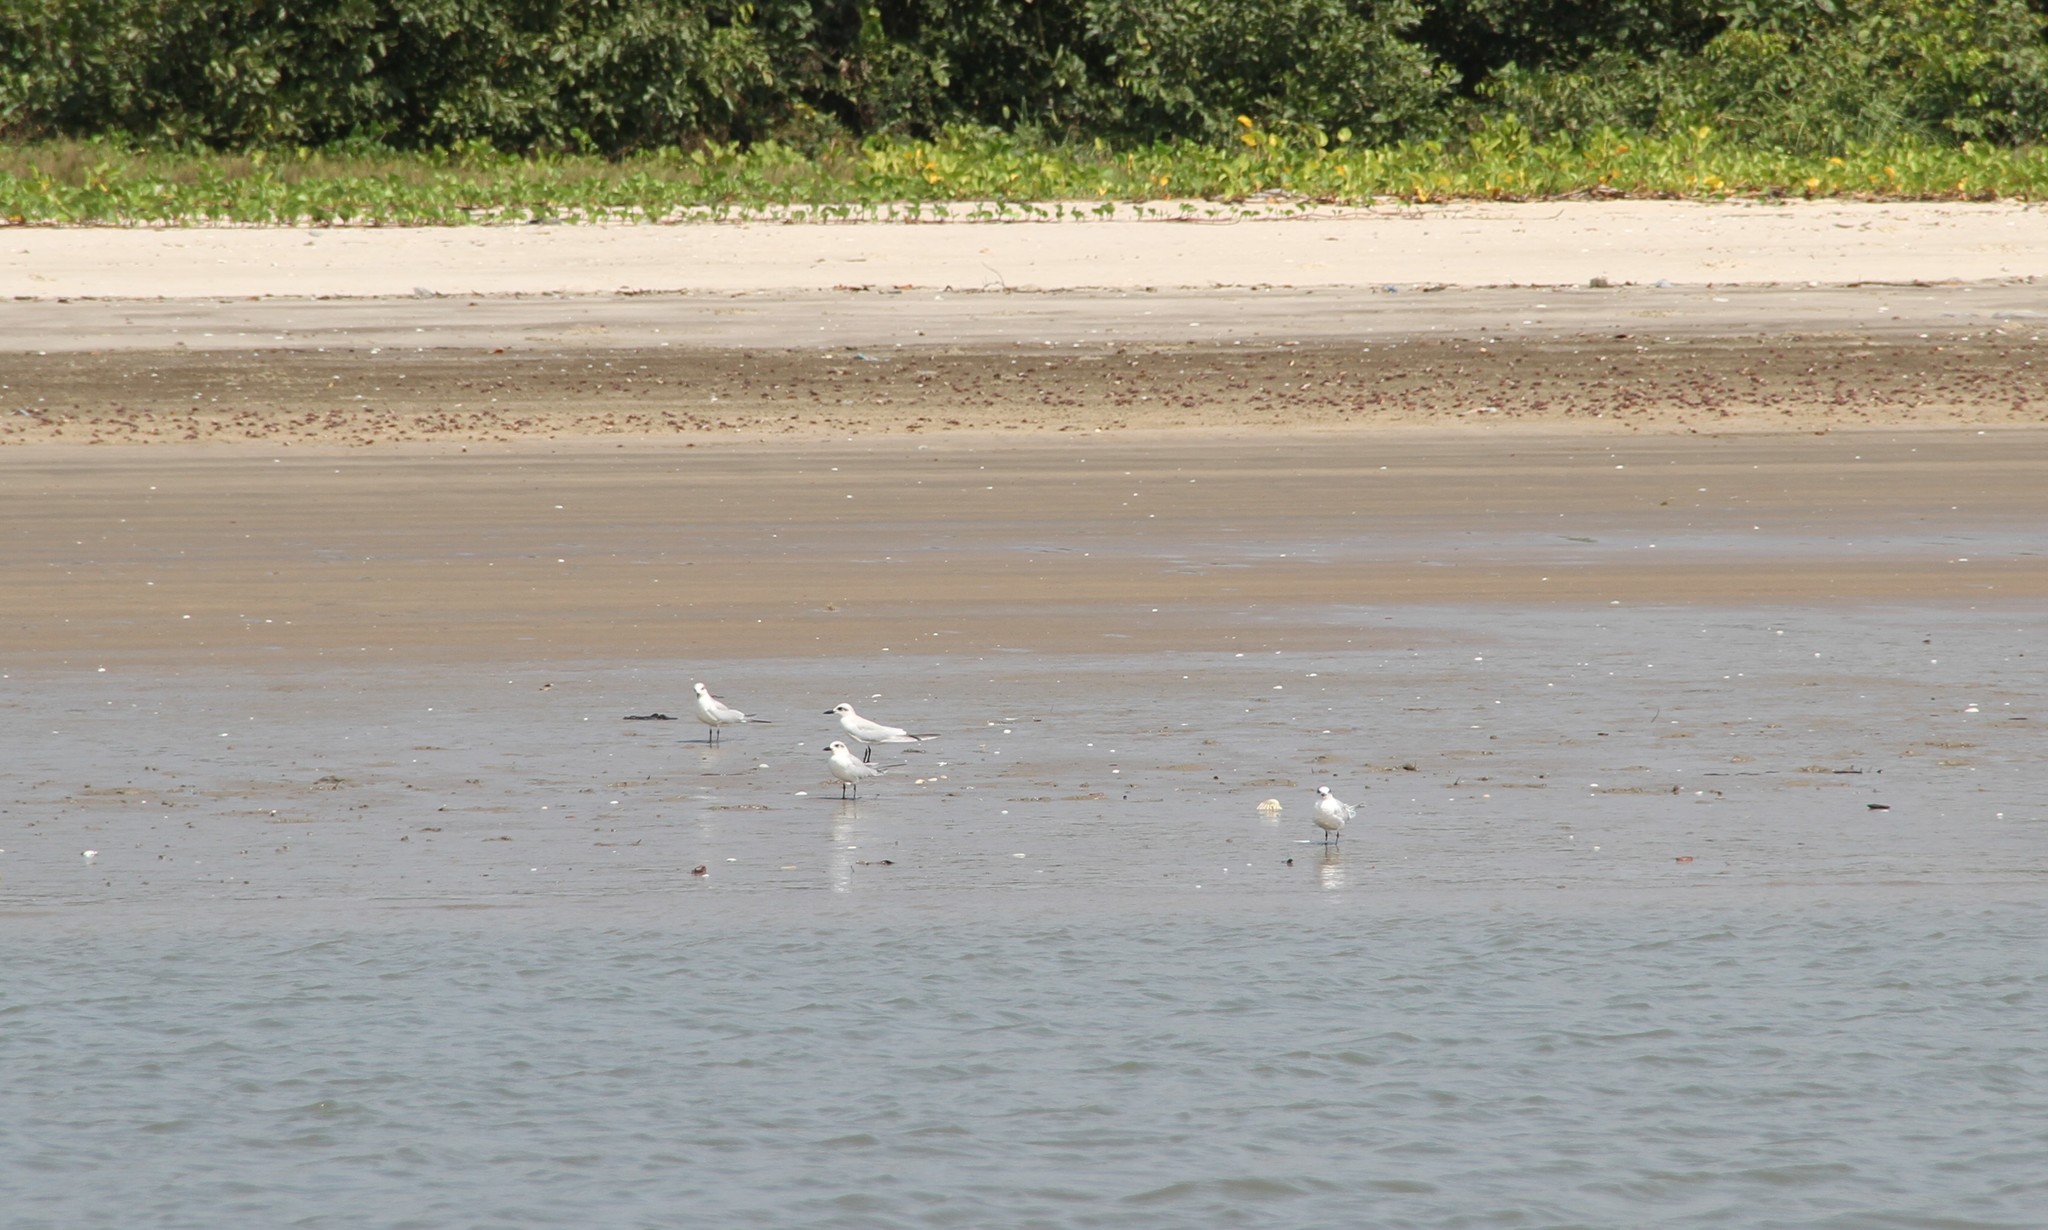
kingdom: Animalia
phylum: Chordata
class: Aves
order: Charadriiformes
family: Laridae
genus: Gelochelidon
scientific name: Gelochelidon nilotica
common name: Gull-billed tern
